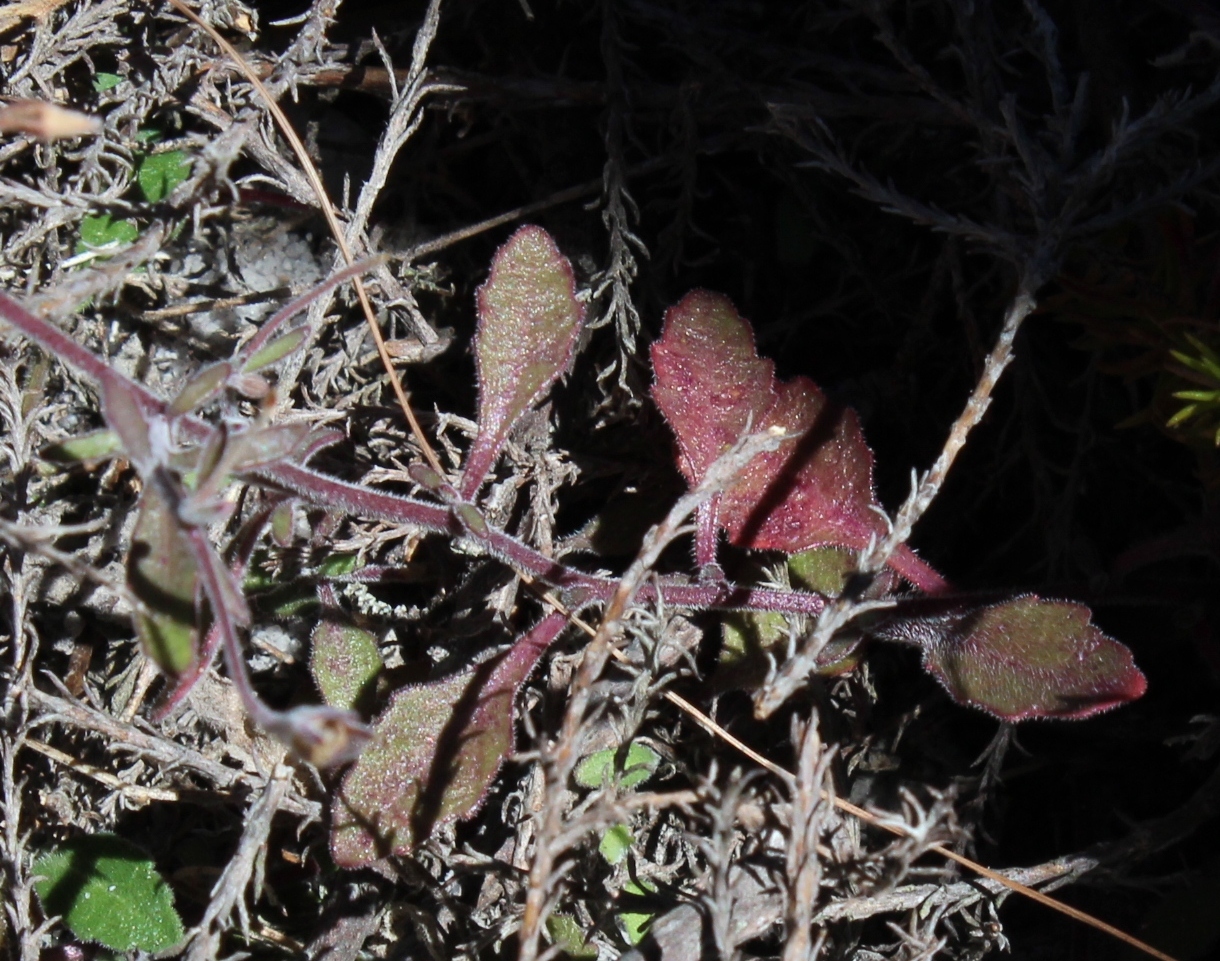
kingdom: Plantae
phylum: Tracheophyta
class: Magnoliopsida
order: Asterales
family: Campanulaceae
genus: Lobelia
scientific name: Lobelia erinus
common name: Edging lobelia
